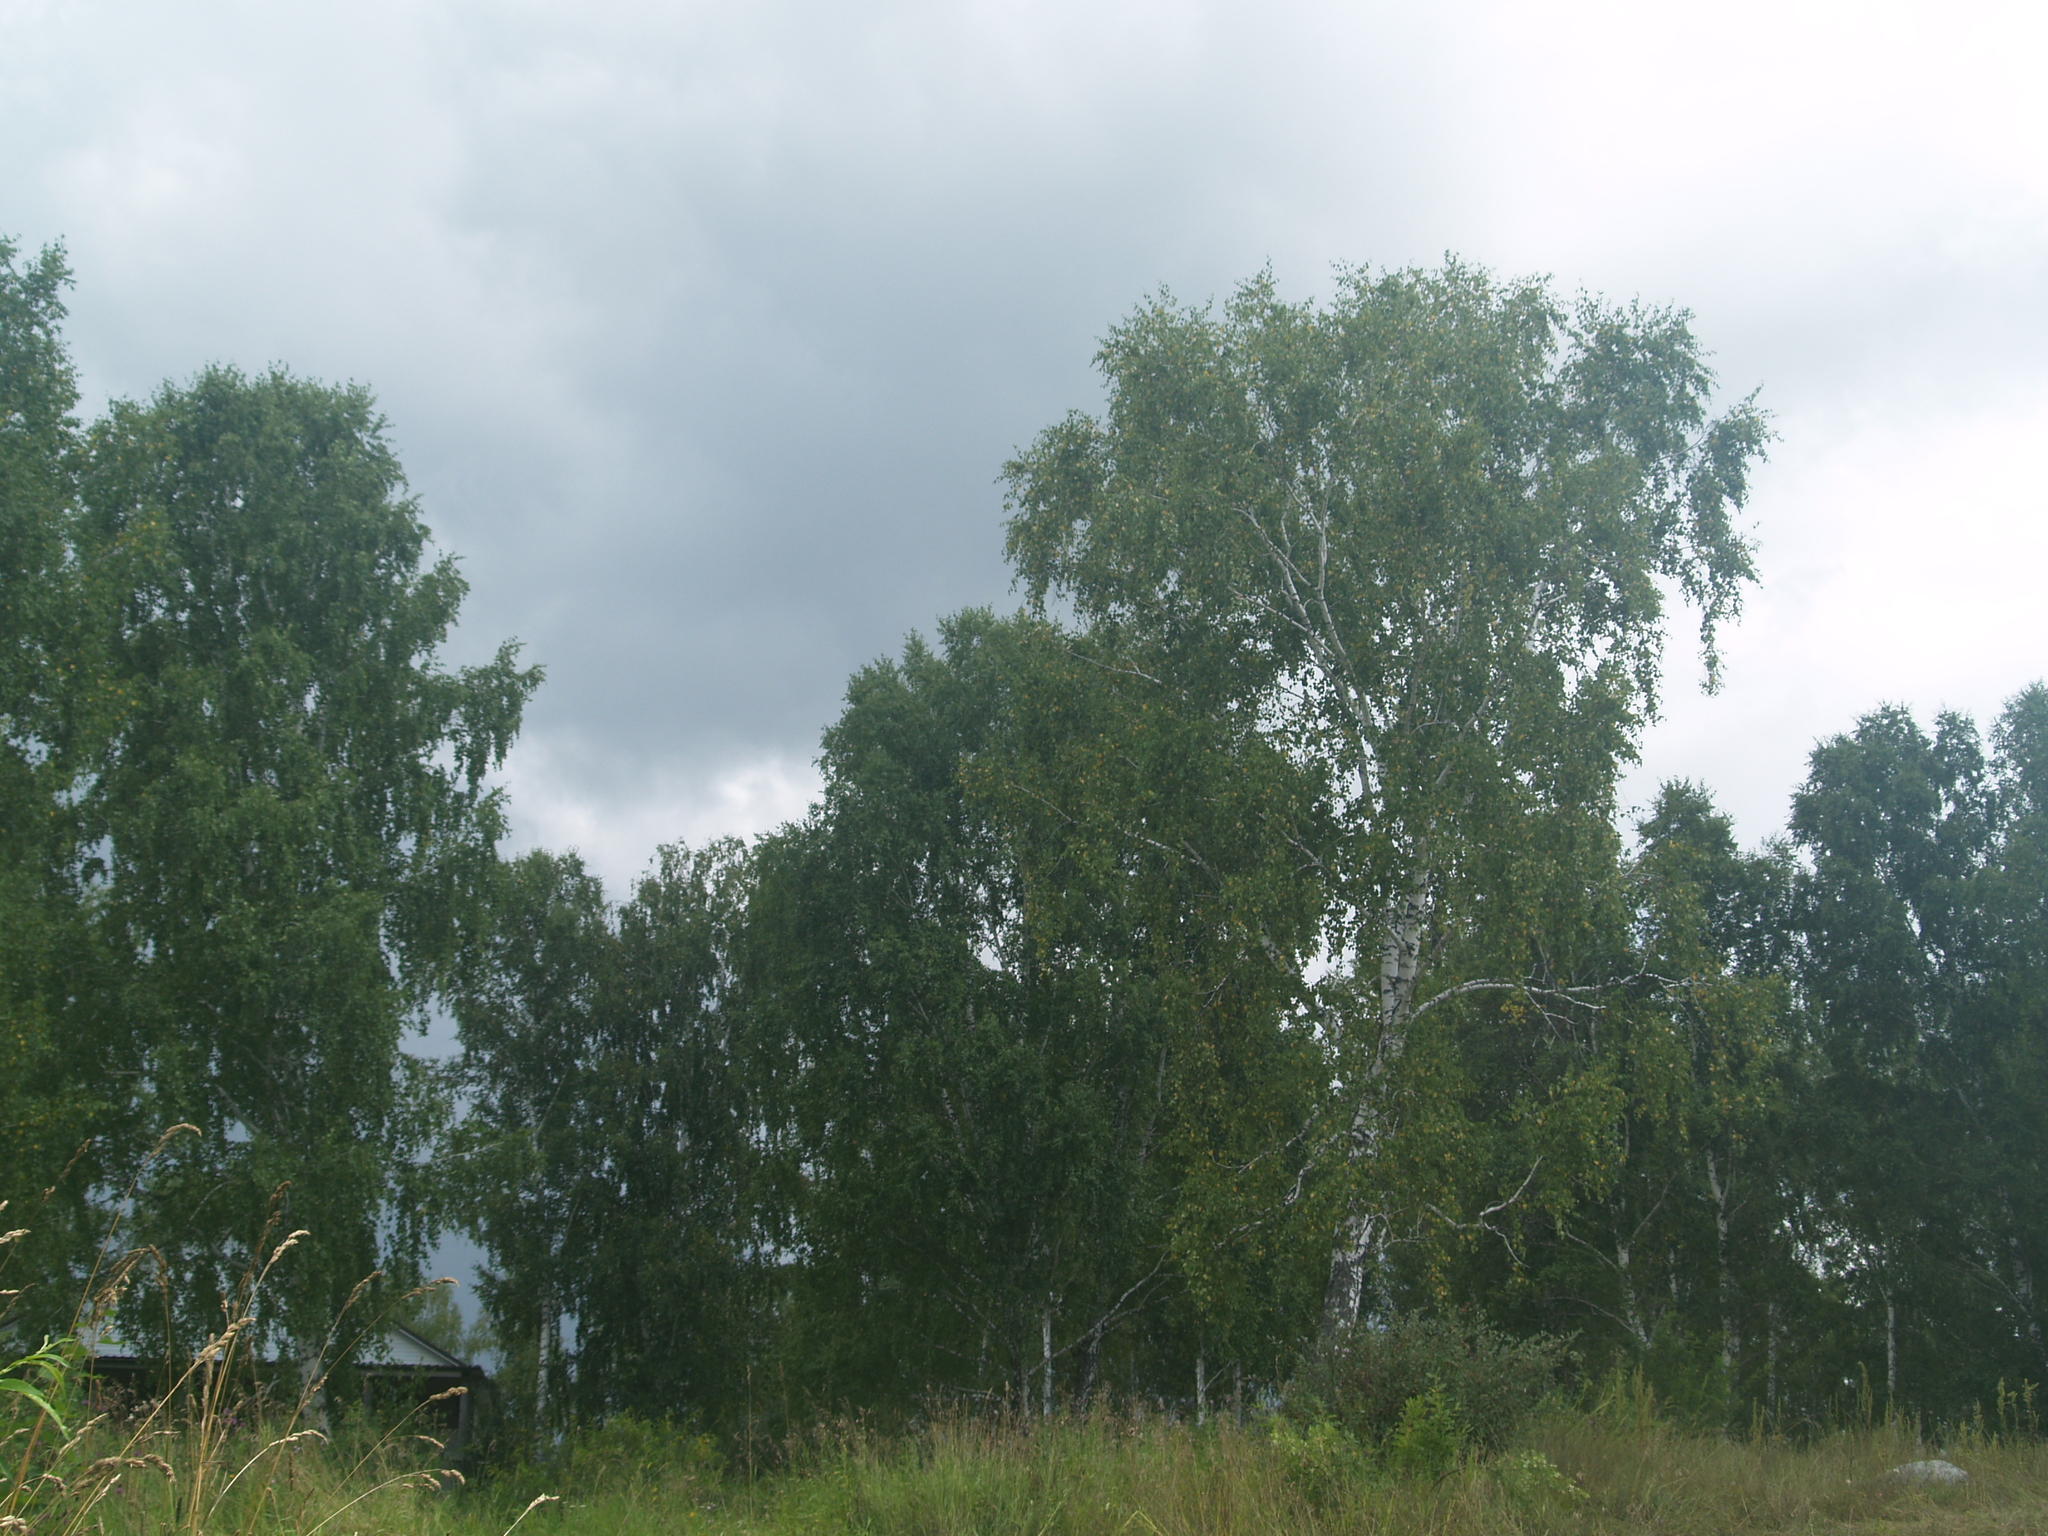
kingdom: Plantae
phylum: Tracheophyta
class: Magnoliopsida
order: Fagales
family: Betulaceae
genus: Betula
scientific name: Betula pendula
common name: Silver birch
